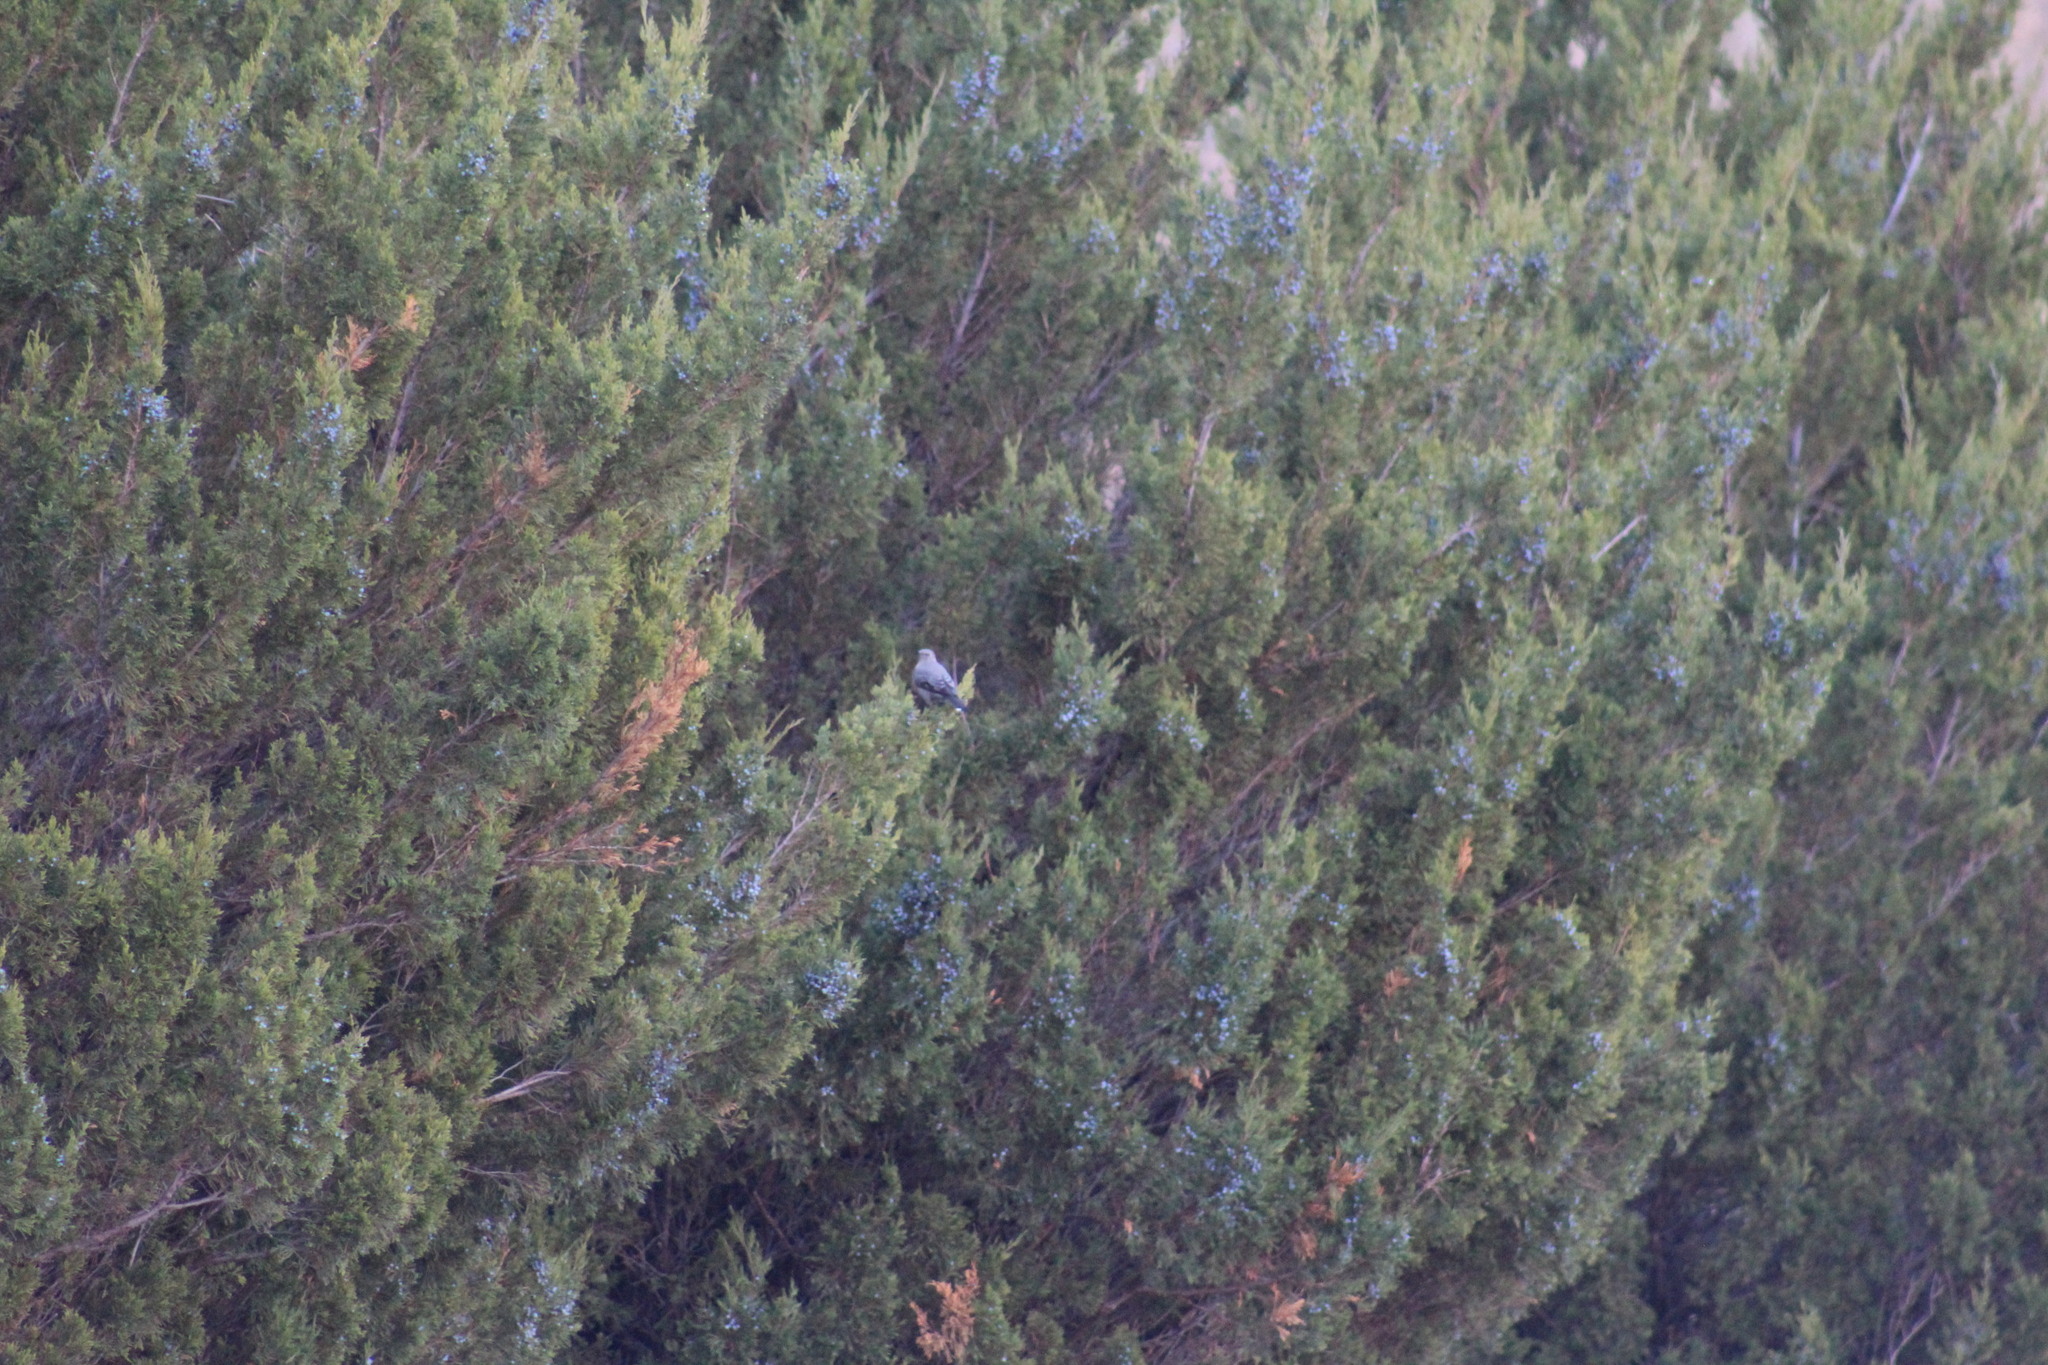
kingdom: Animalia
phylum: Chordata
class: Aves
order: Passeriformes
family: Turdidae
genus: Myadestes
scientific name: Myadestes townsendi
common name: Townsend's solitaire
